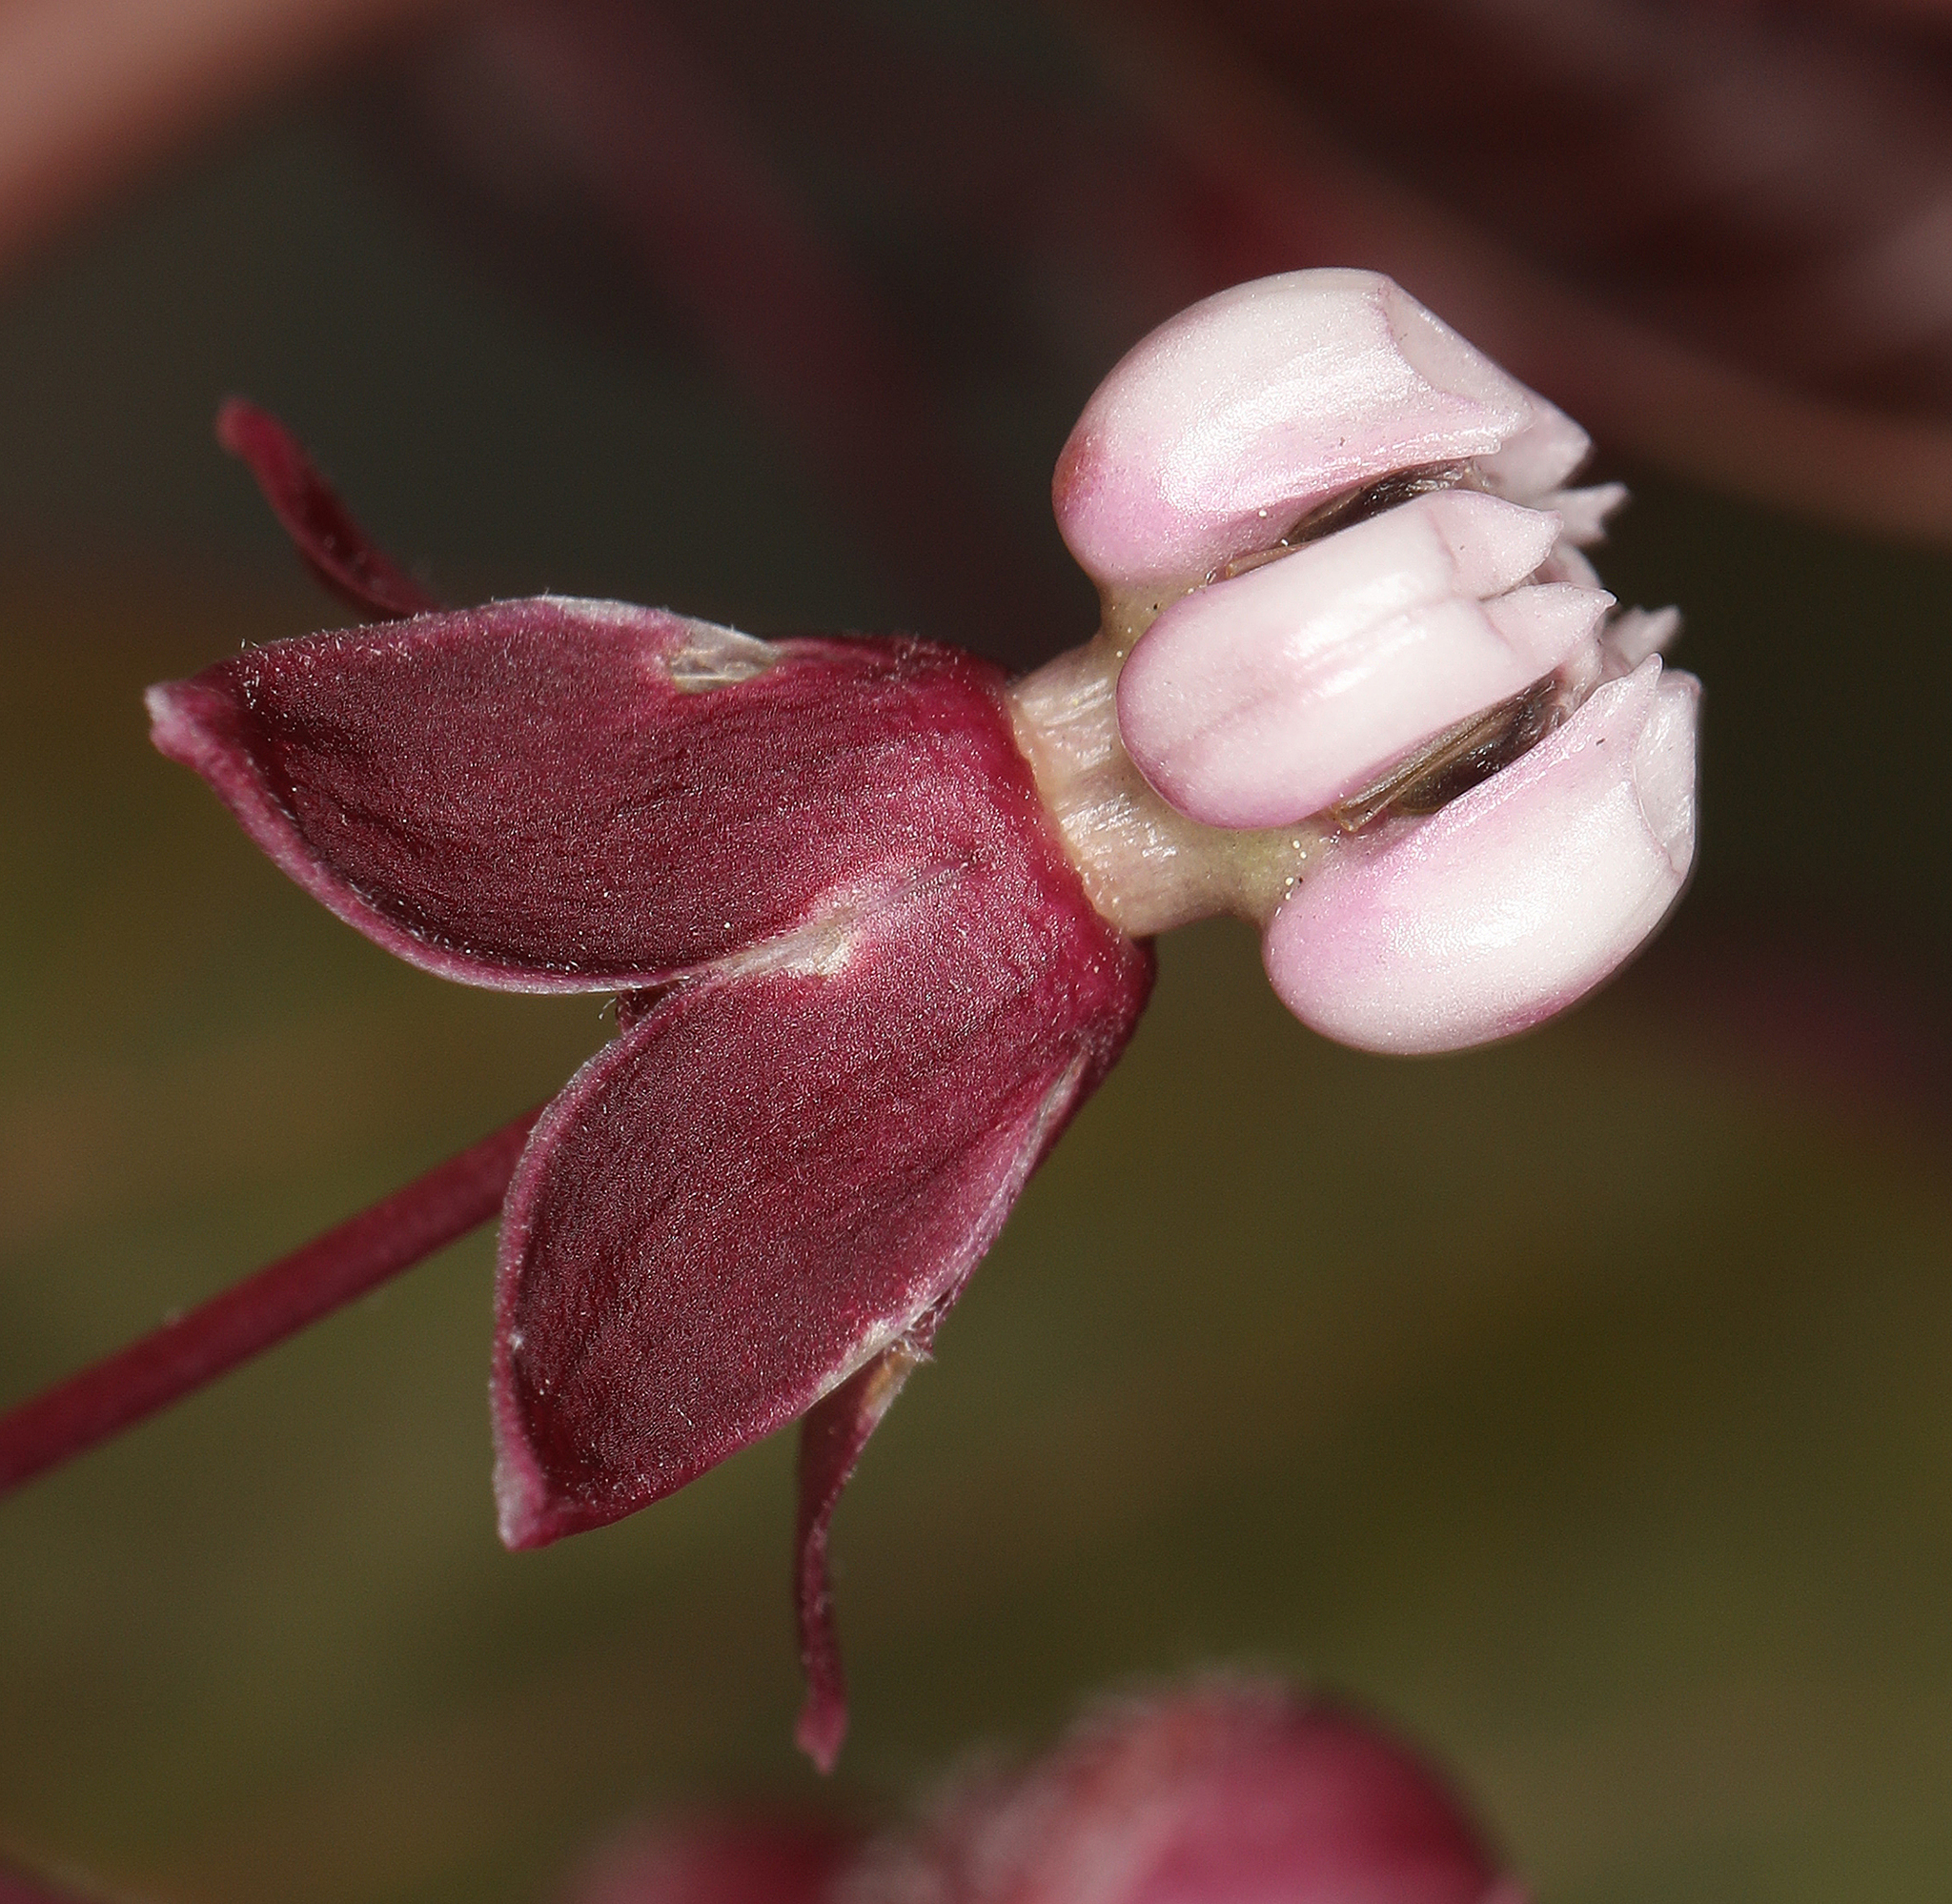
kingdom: Plantae
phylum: Tracheophyta
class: Magnoliopsida
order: Gentianales
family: Apocynaceae
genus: Asclepias
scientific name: Asclepias cordifolia
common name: Purple milkweed
